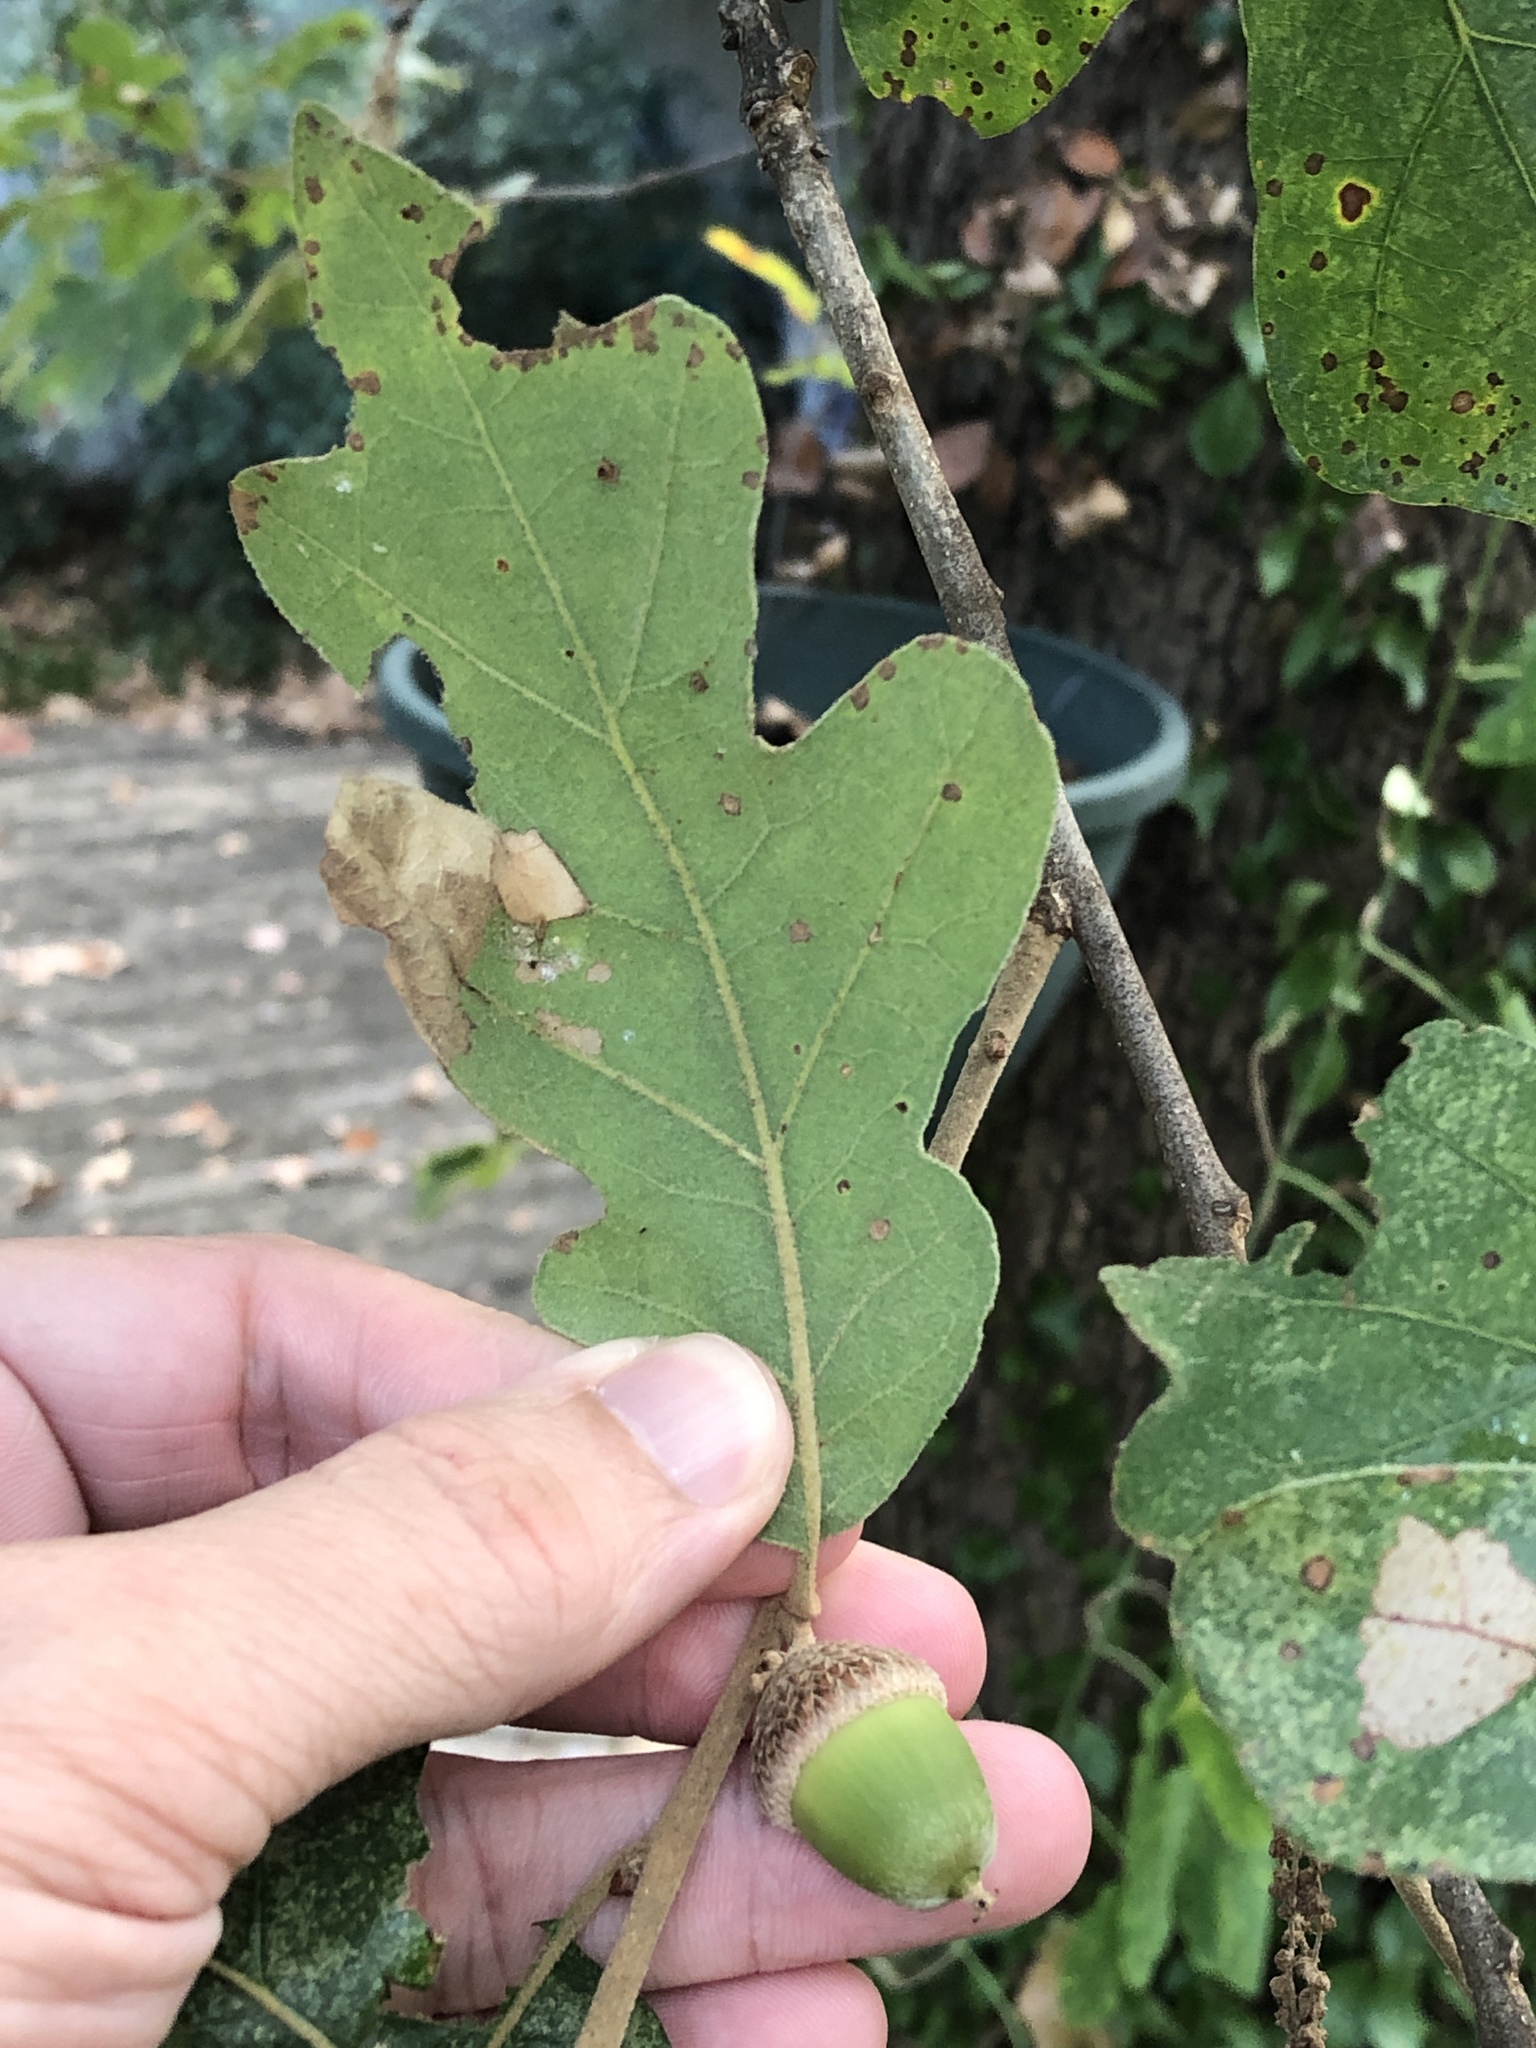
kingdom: Plantae
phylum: Tracheophyta
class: Magnoliopsida
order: Fagales
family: Fagaceae
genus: Quercus
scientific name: Quercus stellata
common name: Post oak
